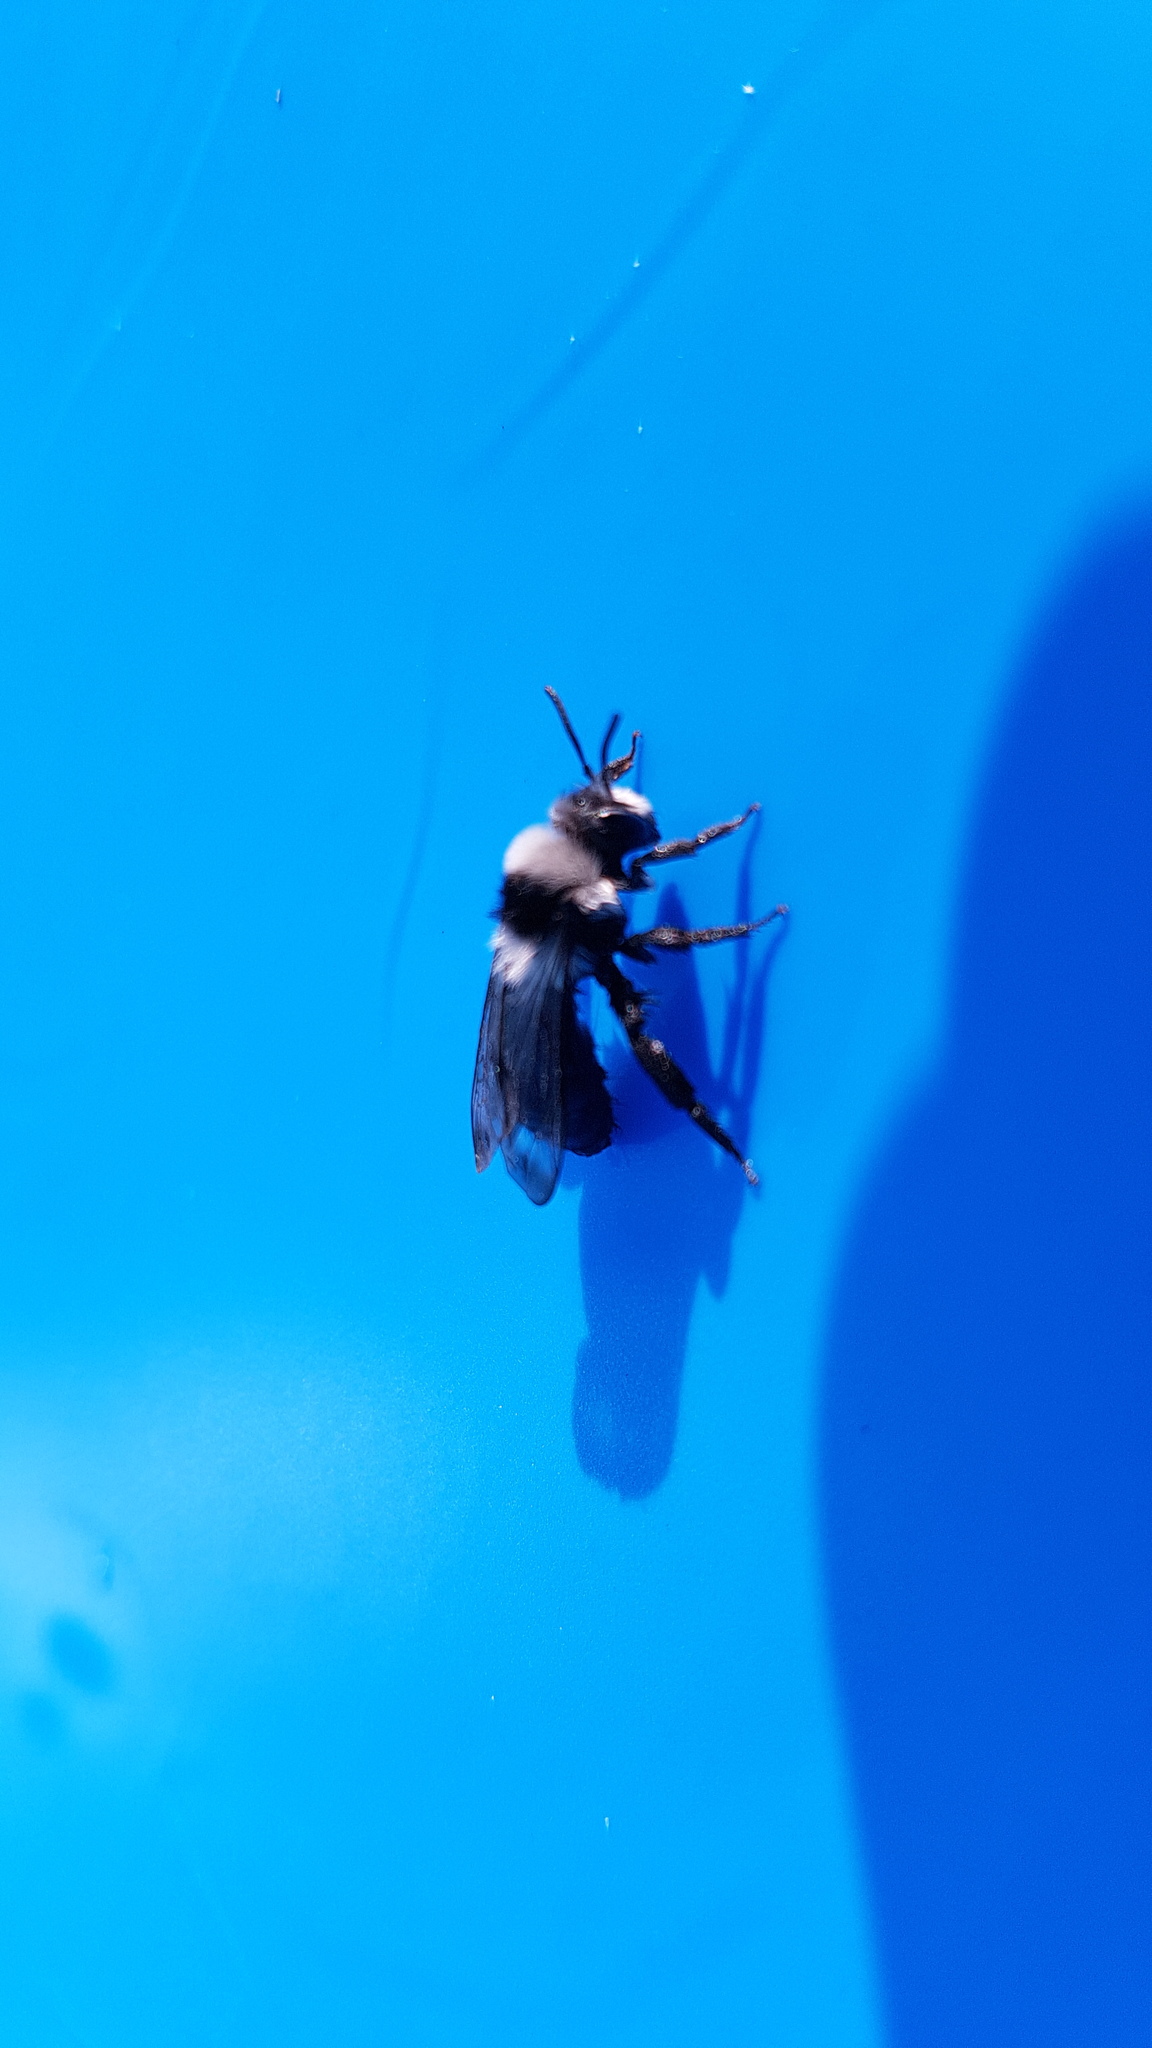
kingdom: Animalia
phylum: Arthropoda
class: Insecta
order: Hymenoptera
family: Andrenidae
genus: Andrena
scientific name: Andrena cineraria
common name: Ashy mining bee
